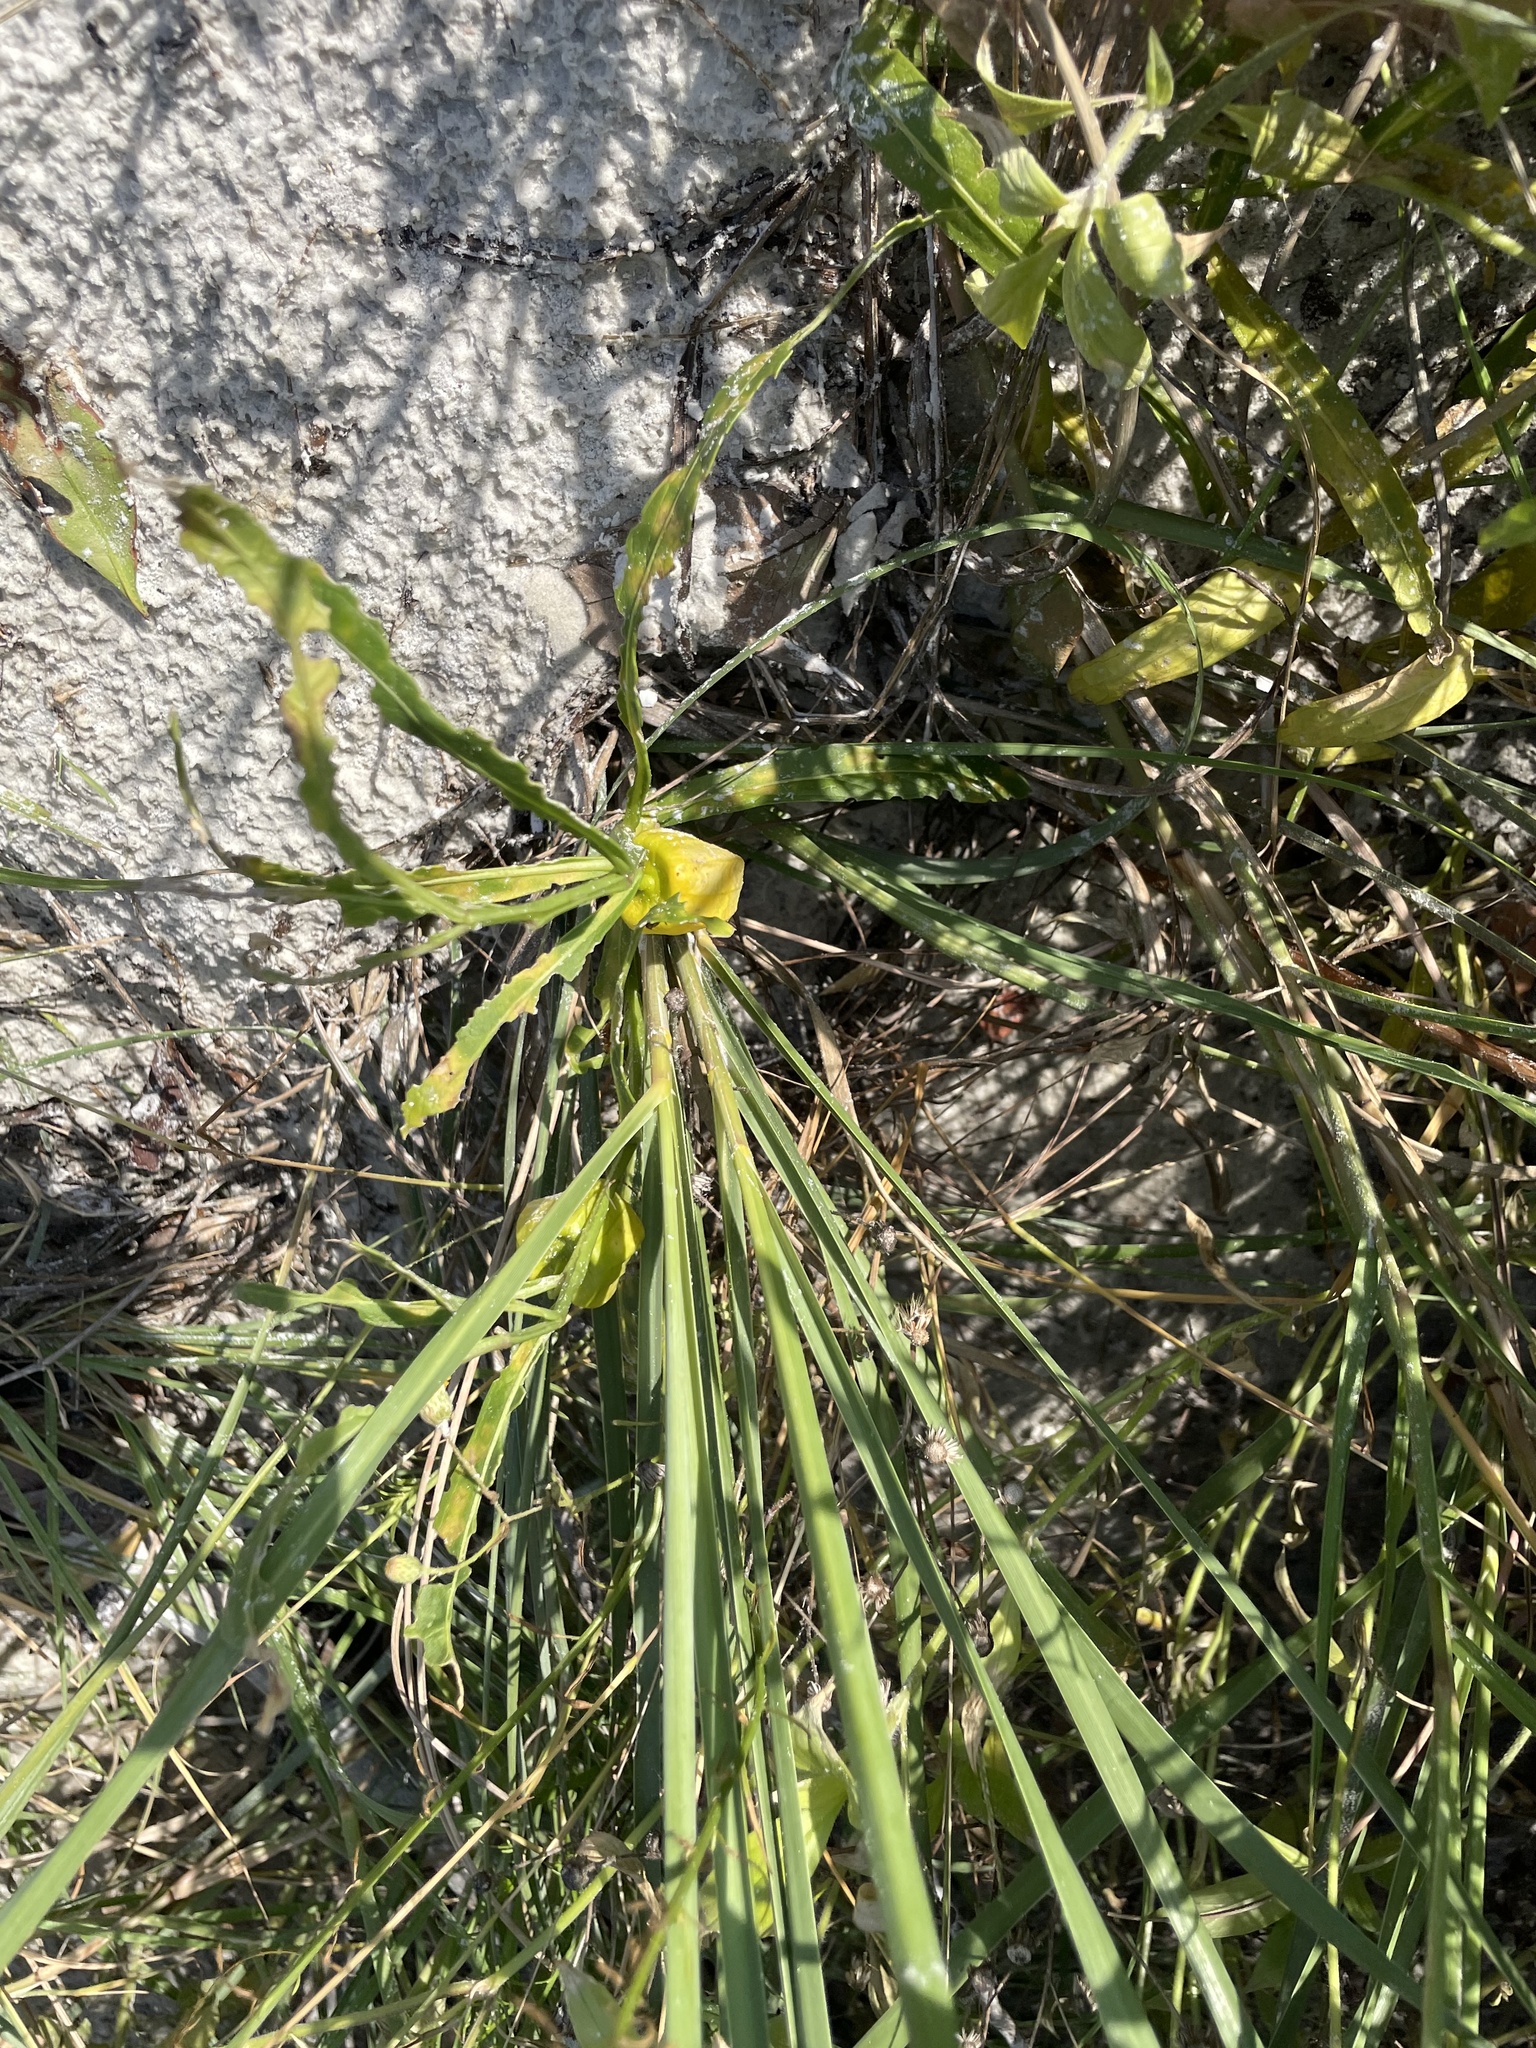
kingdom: Plantae
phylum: Tracheophyta
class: Magnoliopsida
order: Solanales
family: Solanaceae
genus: Physalis
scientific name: Physalis elliottii
